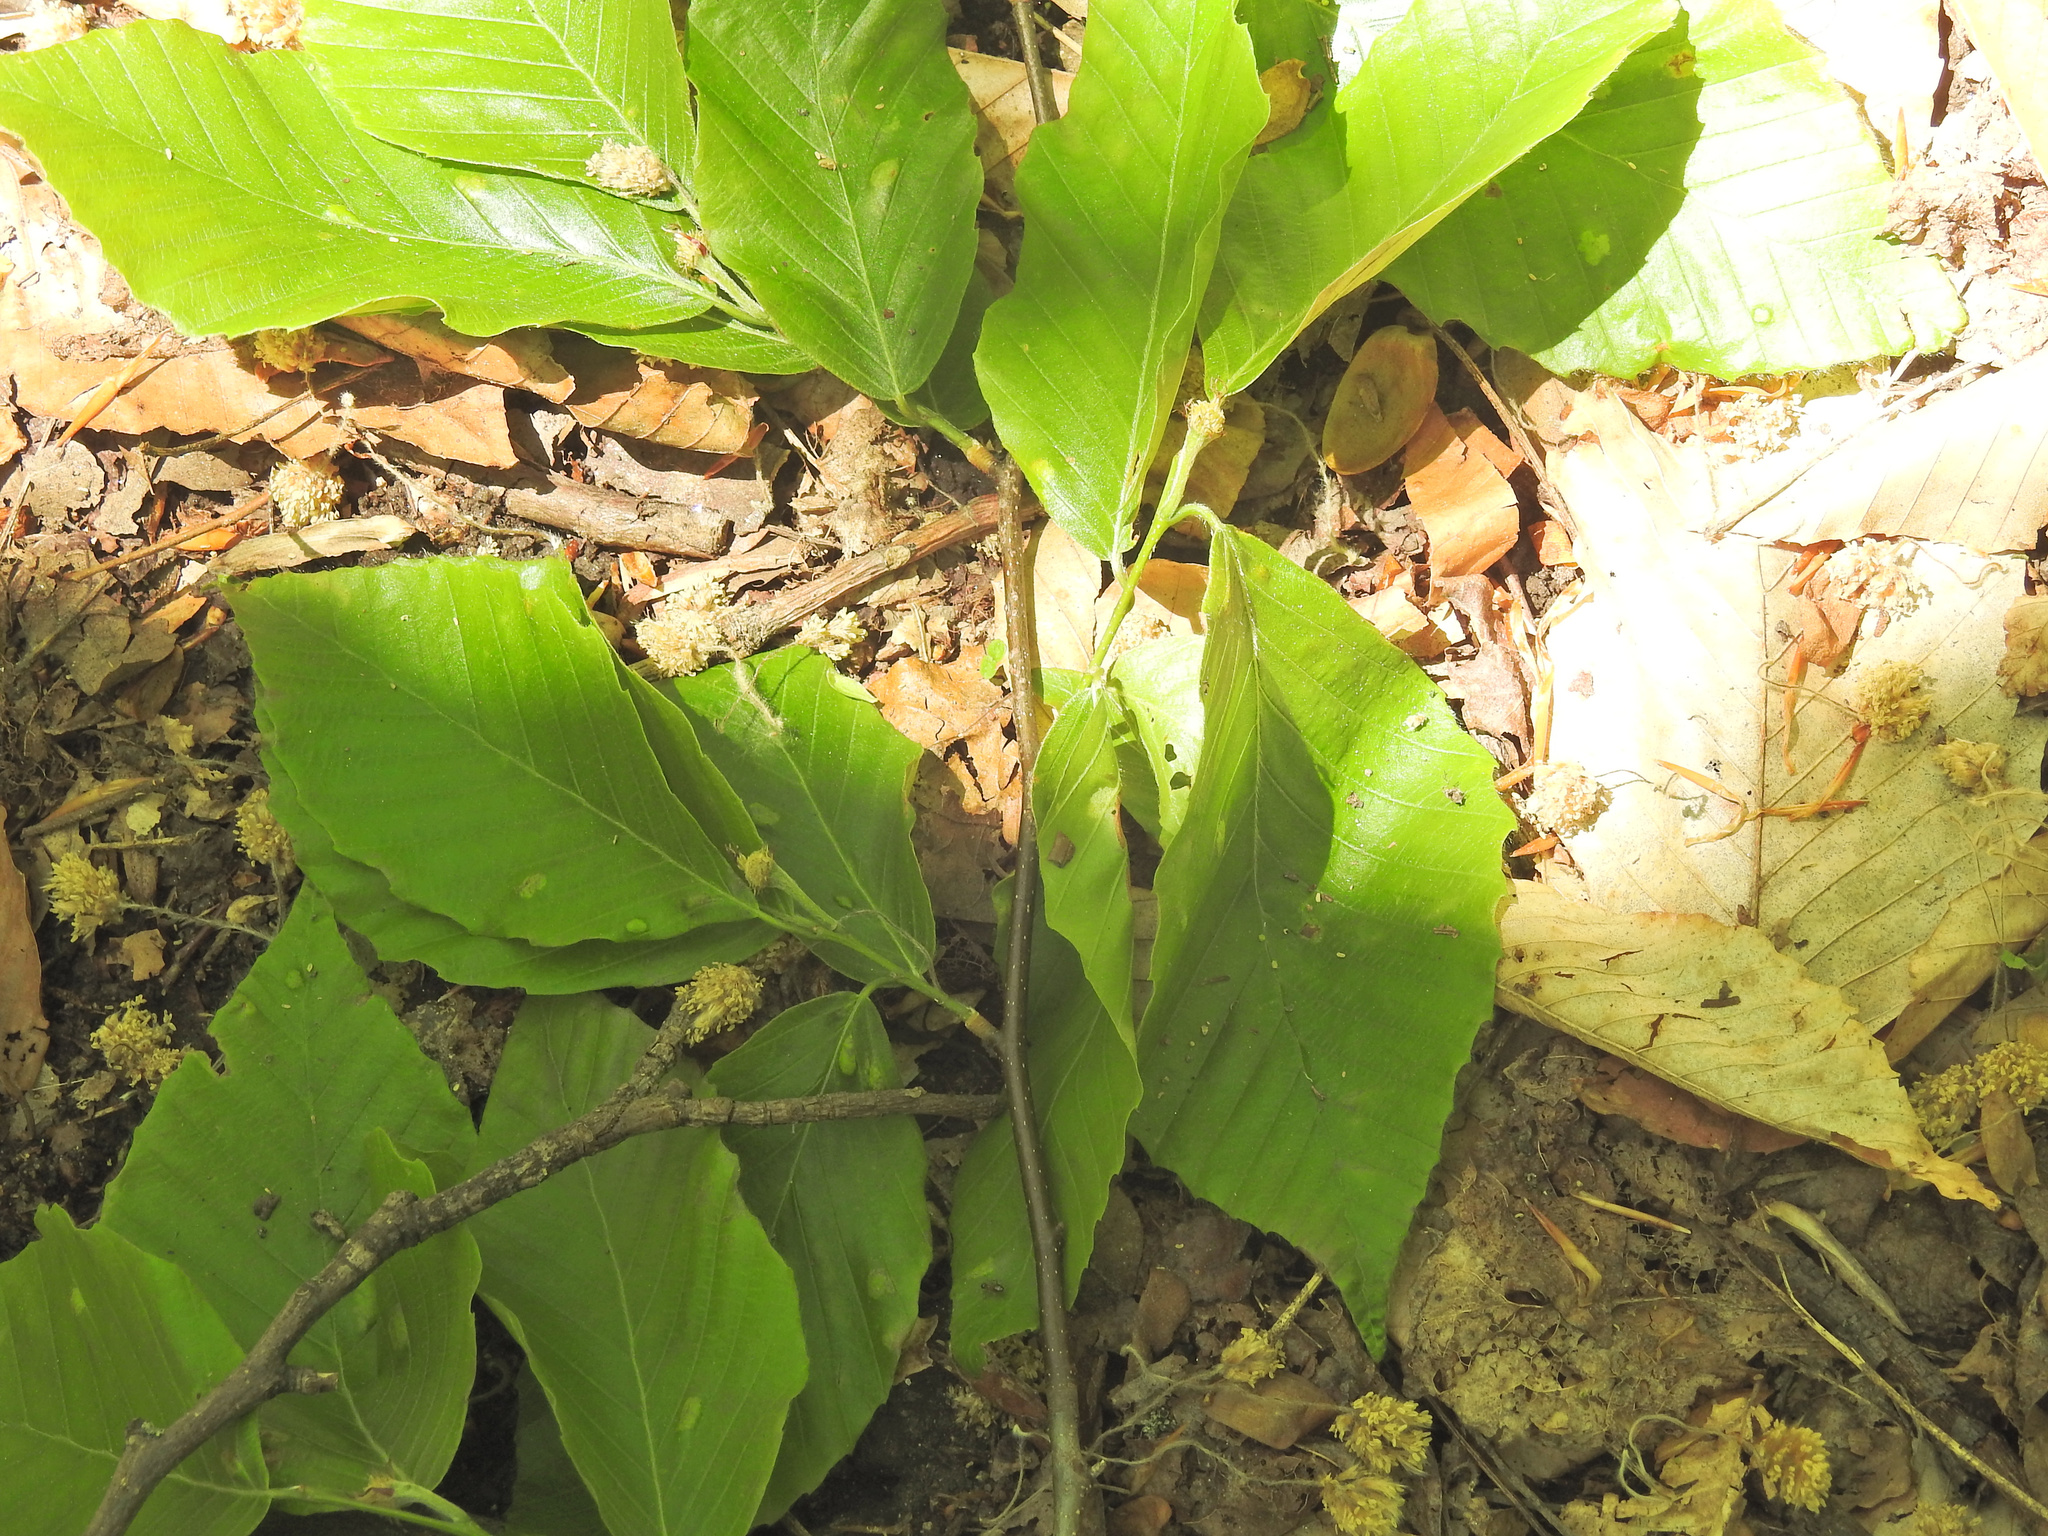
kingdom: Plantae
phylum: Tracheophyta
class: Magnoliopsida
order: Fagales
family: Fagaceae
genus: Fagus
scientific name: Fagus grandifolia
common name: American beech
